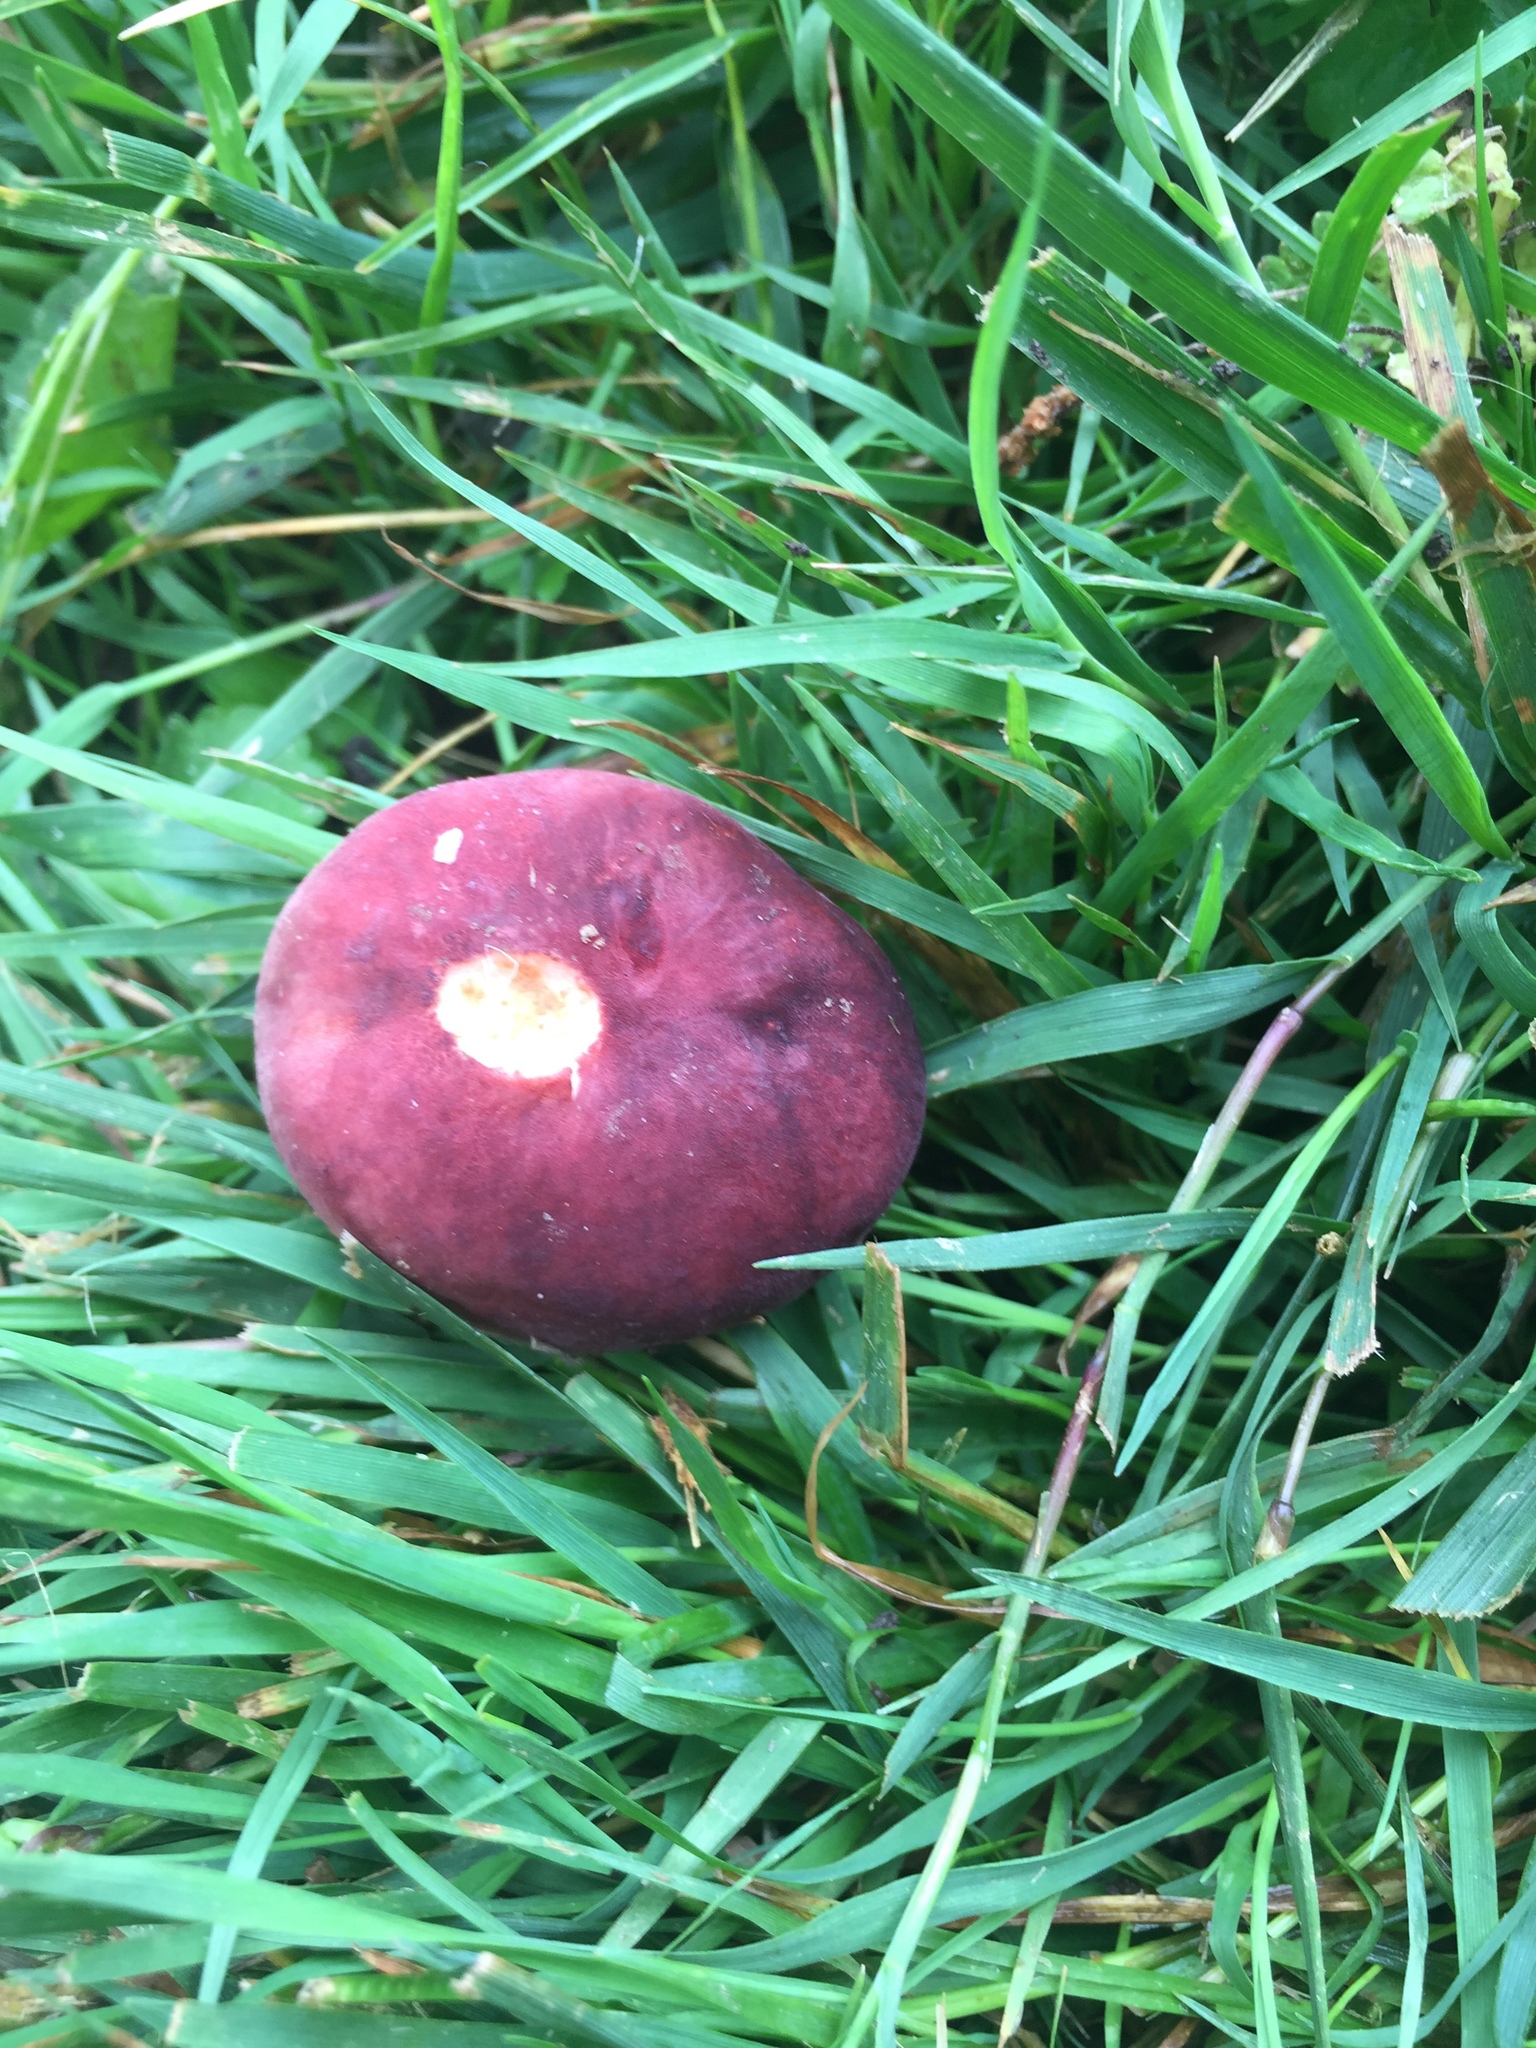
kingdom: Fungi
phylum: Basidiomycota
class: Agaricomycetes
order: Russulales
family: Russulaceae
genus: Russula
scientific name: Russula mariae
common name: Purple-bloom russula
